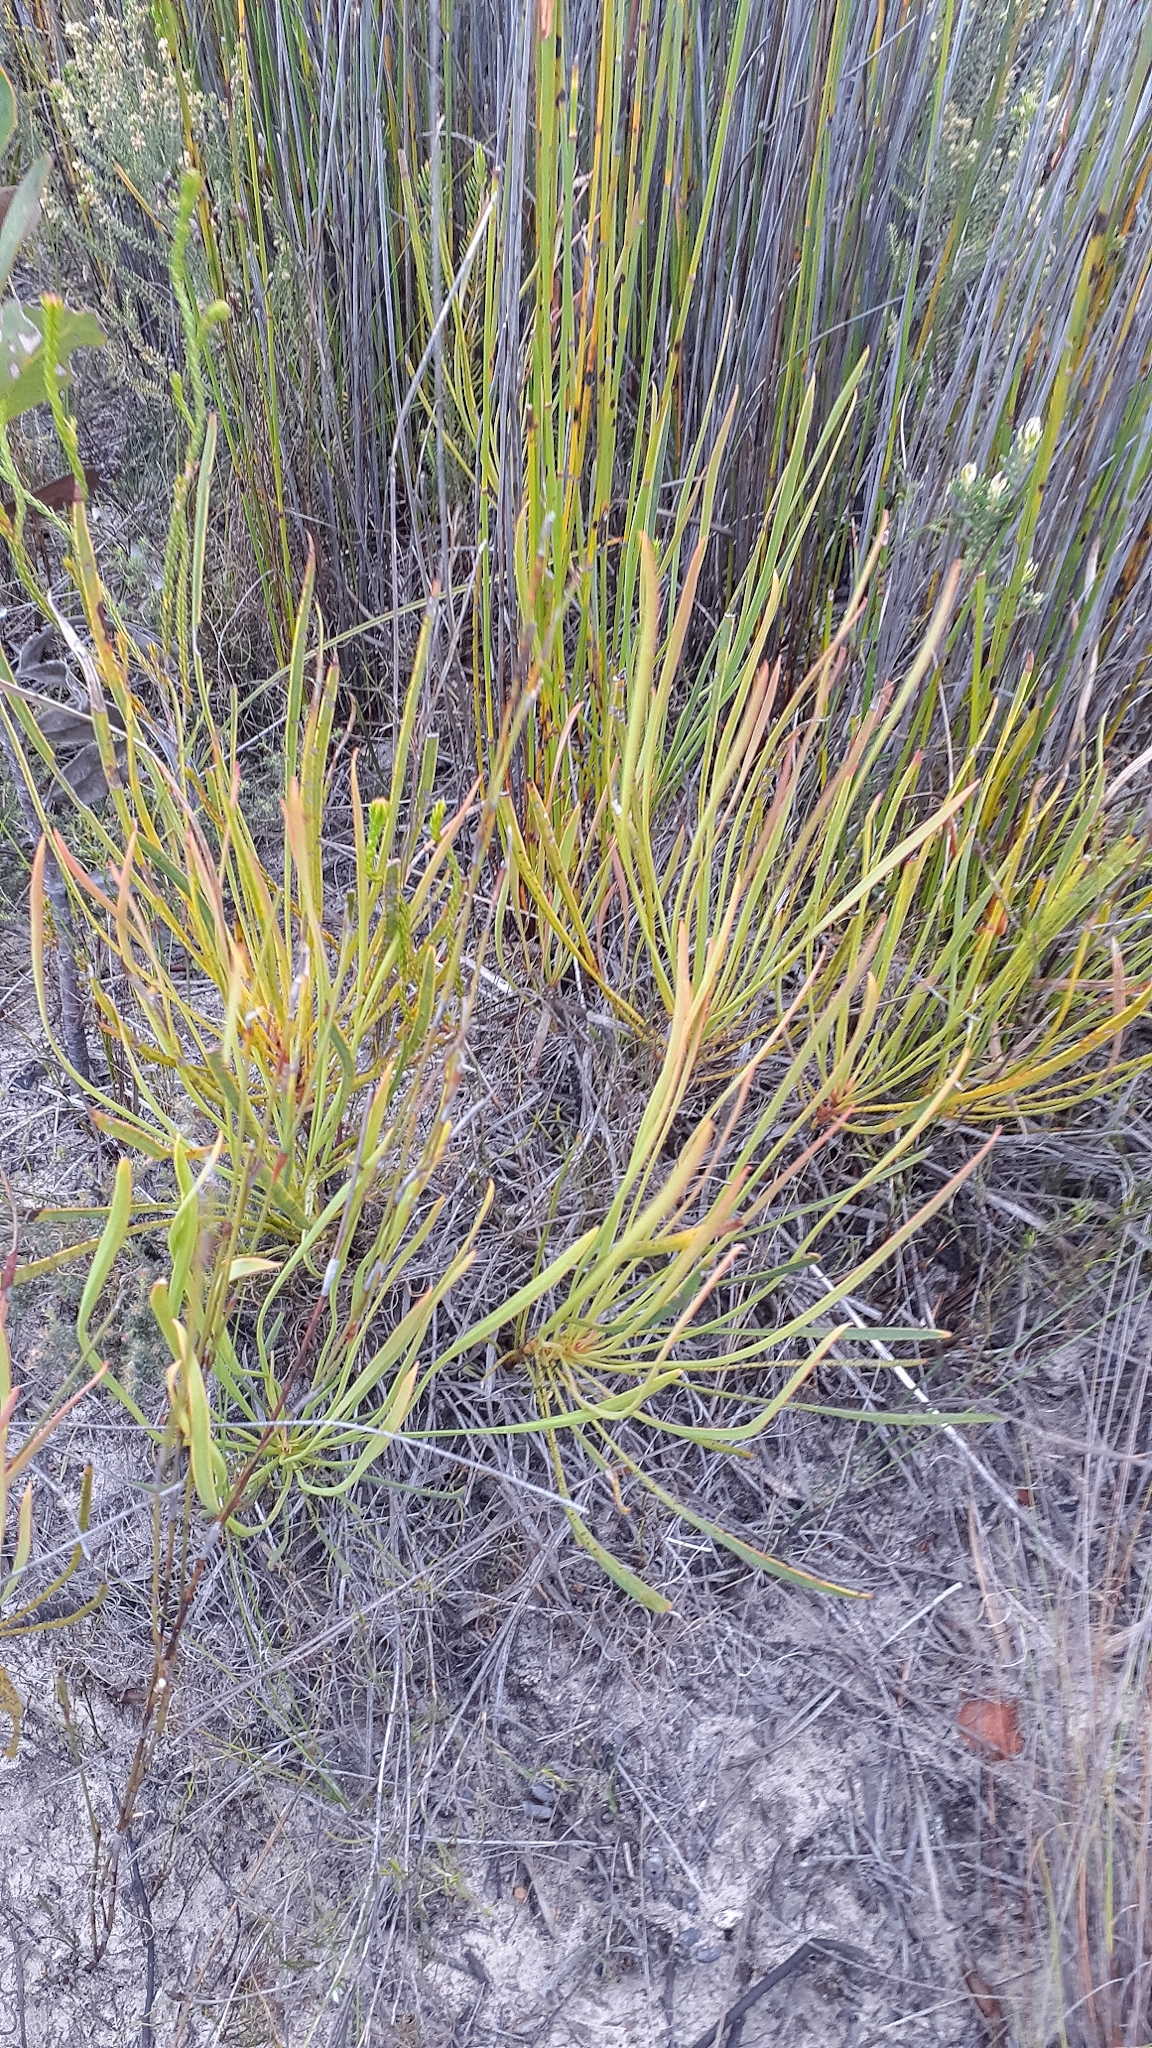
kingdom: Plantae
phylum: Tracheophyta
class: Magnoliopsida
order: Proteales
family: Proteaceae
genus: Protea
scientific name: Protea angustata
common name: Kleinmond sugarbush
